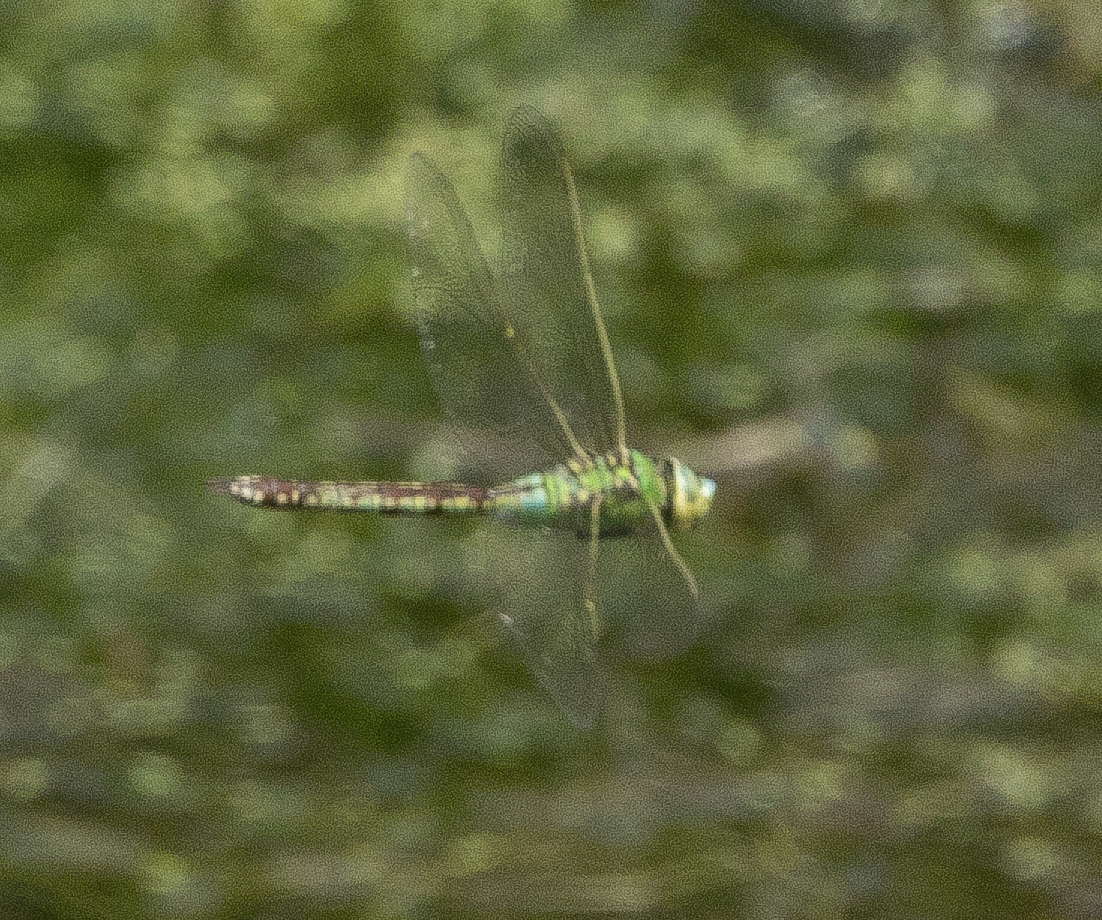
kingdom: Animalia
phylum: Arthropoda
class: Insecta
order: Odonata
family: Aeshnidae
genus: Anax
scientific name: Anax imperator
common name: Emperor dragonfly
